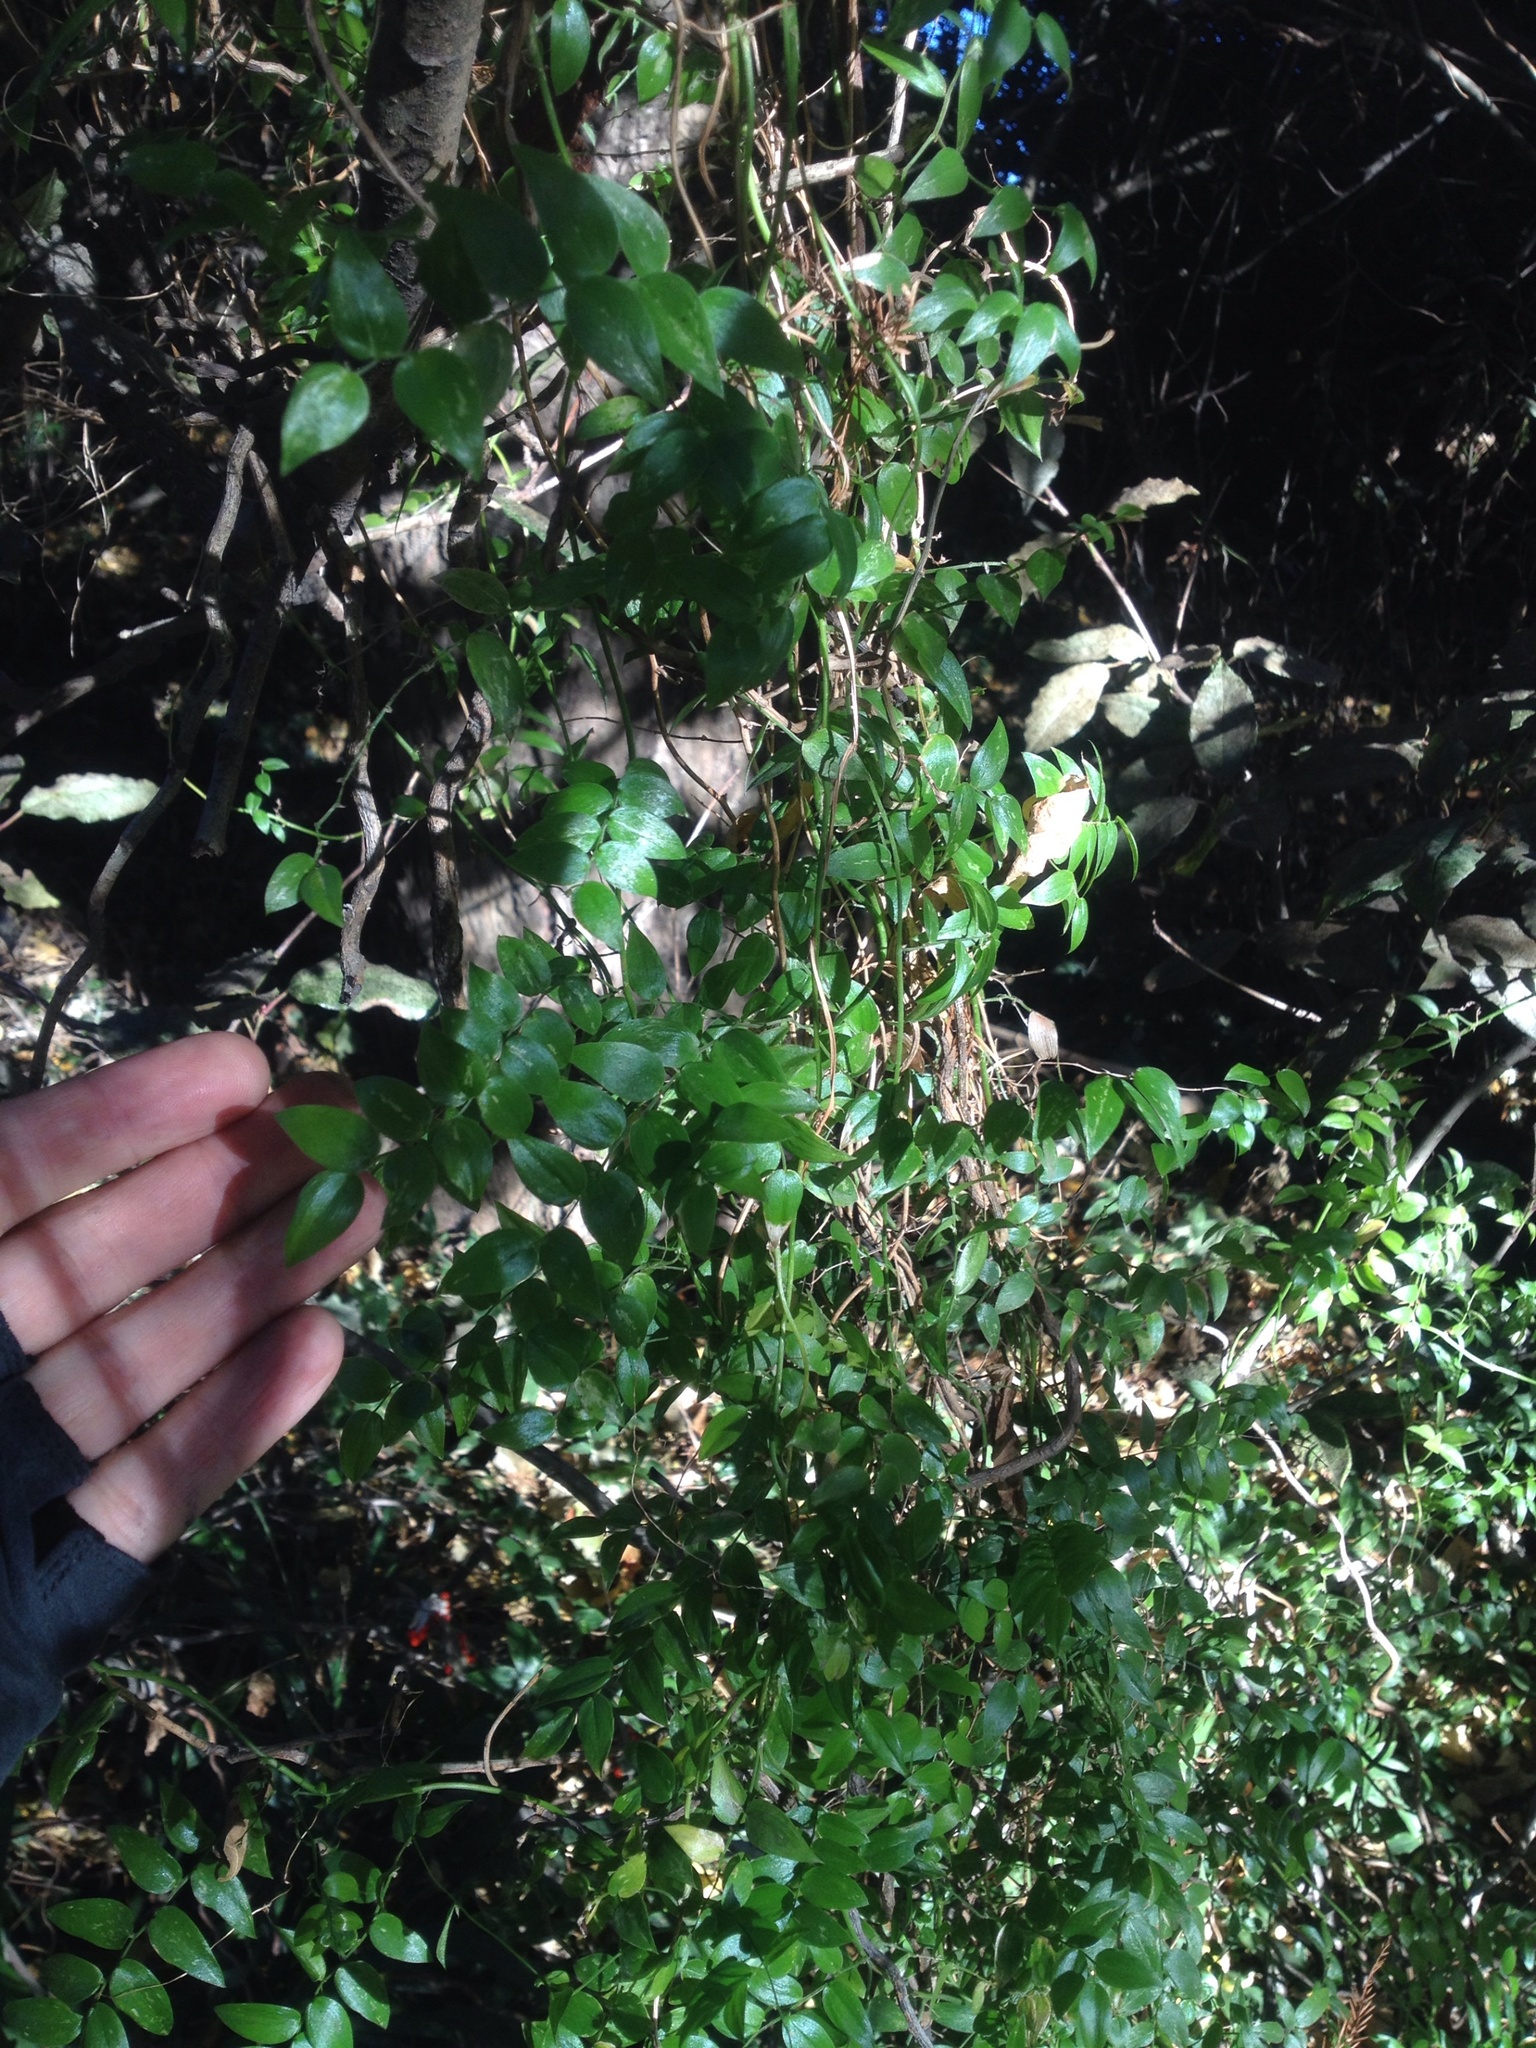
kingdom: Plantae
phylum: Tracheophyta
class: Liliopsida
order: Asparagales
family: Asparagaceae
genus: Asparagus
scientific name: Asparagus asparagoides
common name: African asparagus fern
